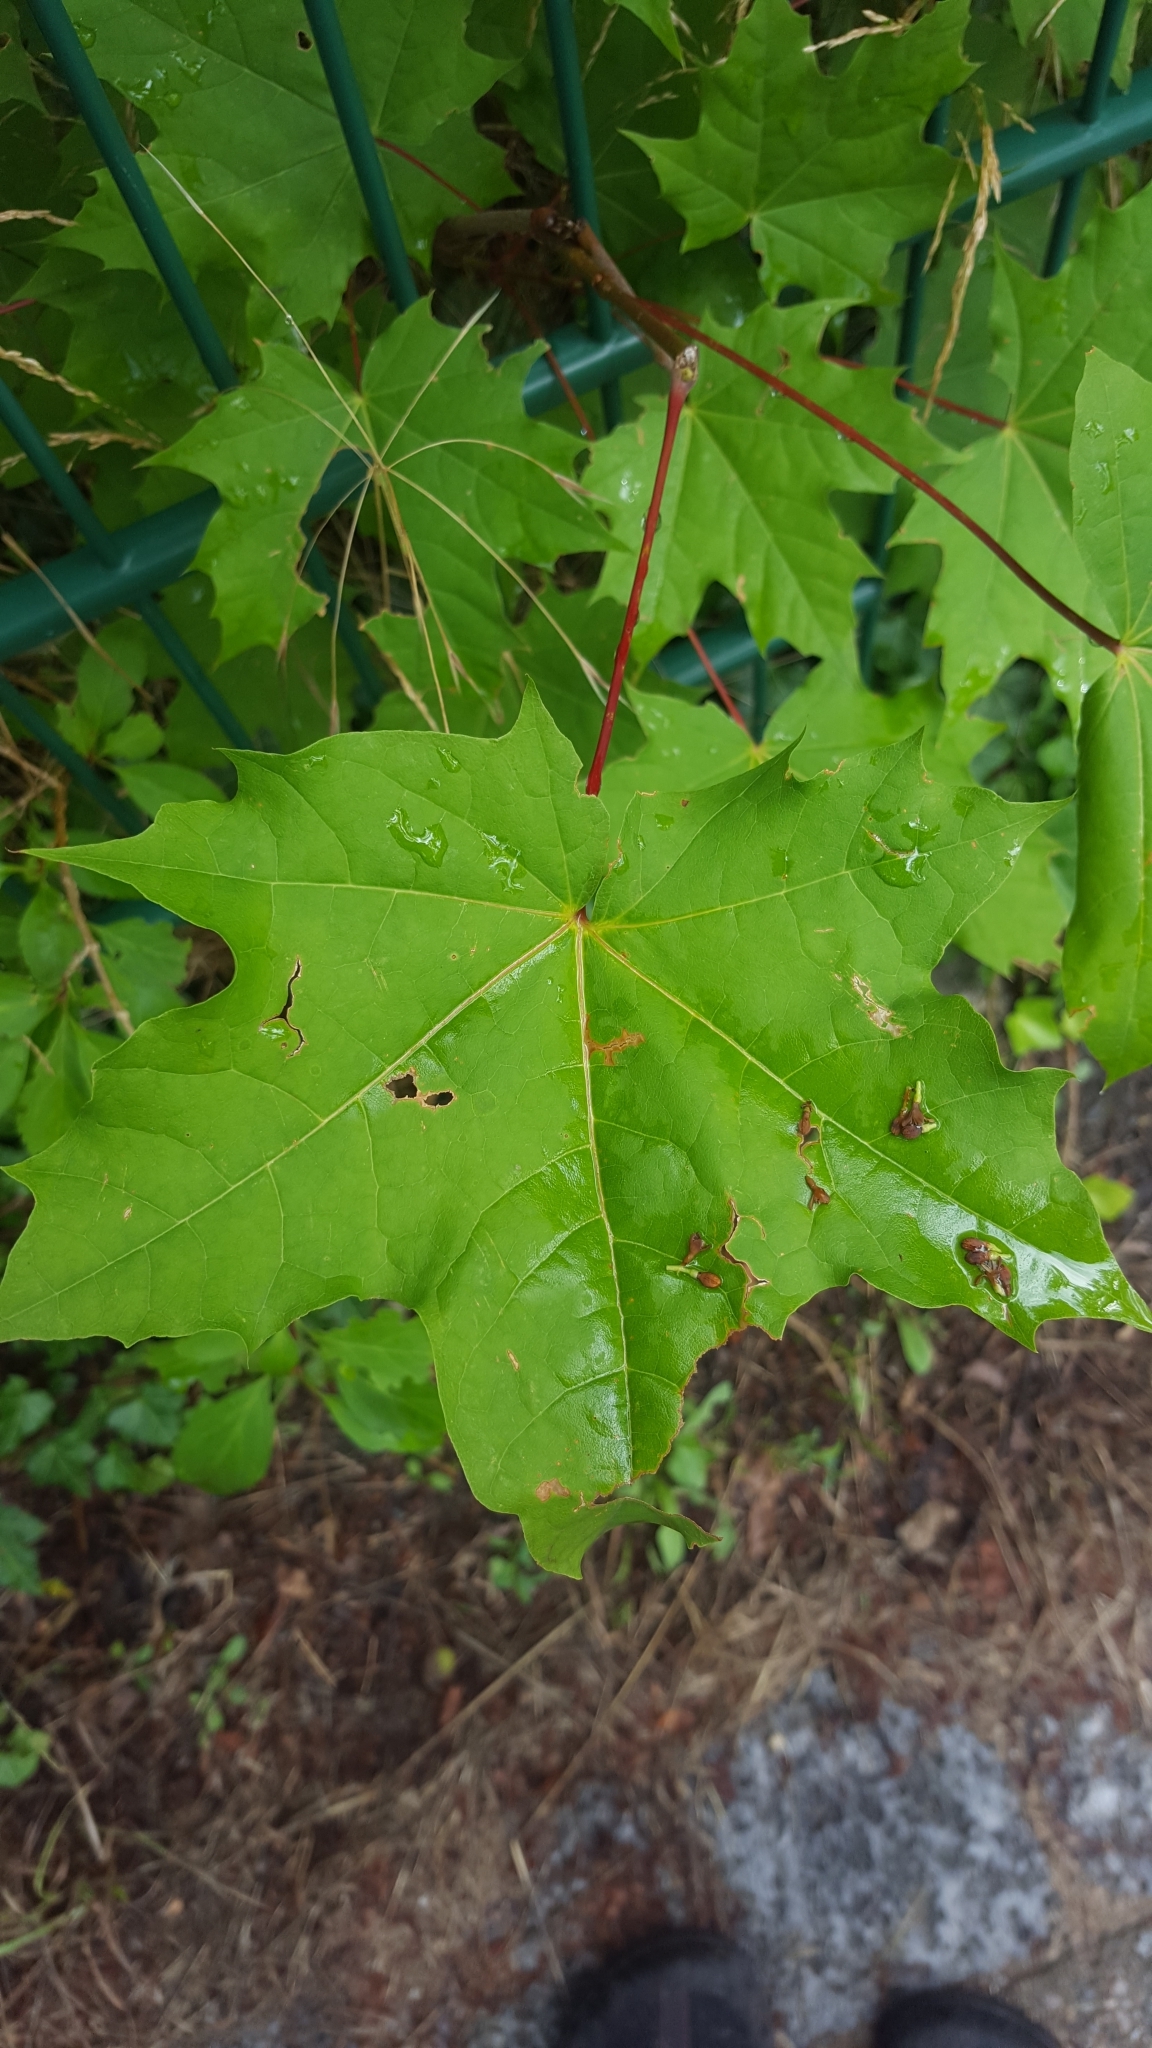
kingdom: Plantae
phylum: Tracheophyta
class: Magnoliopsida
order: Sapindales
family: Sapindaceae
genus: Acer
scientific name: Acer platanoides
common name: Norway maple
